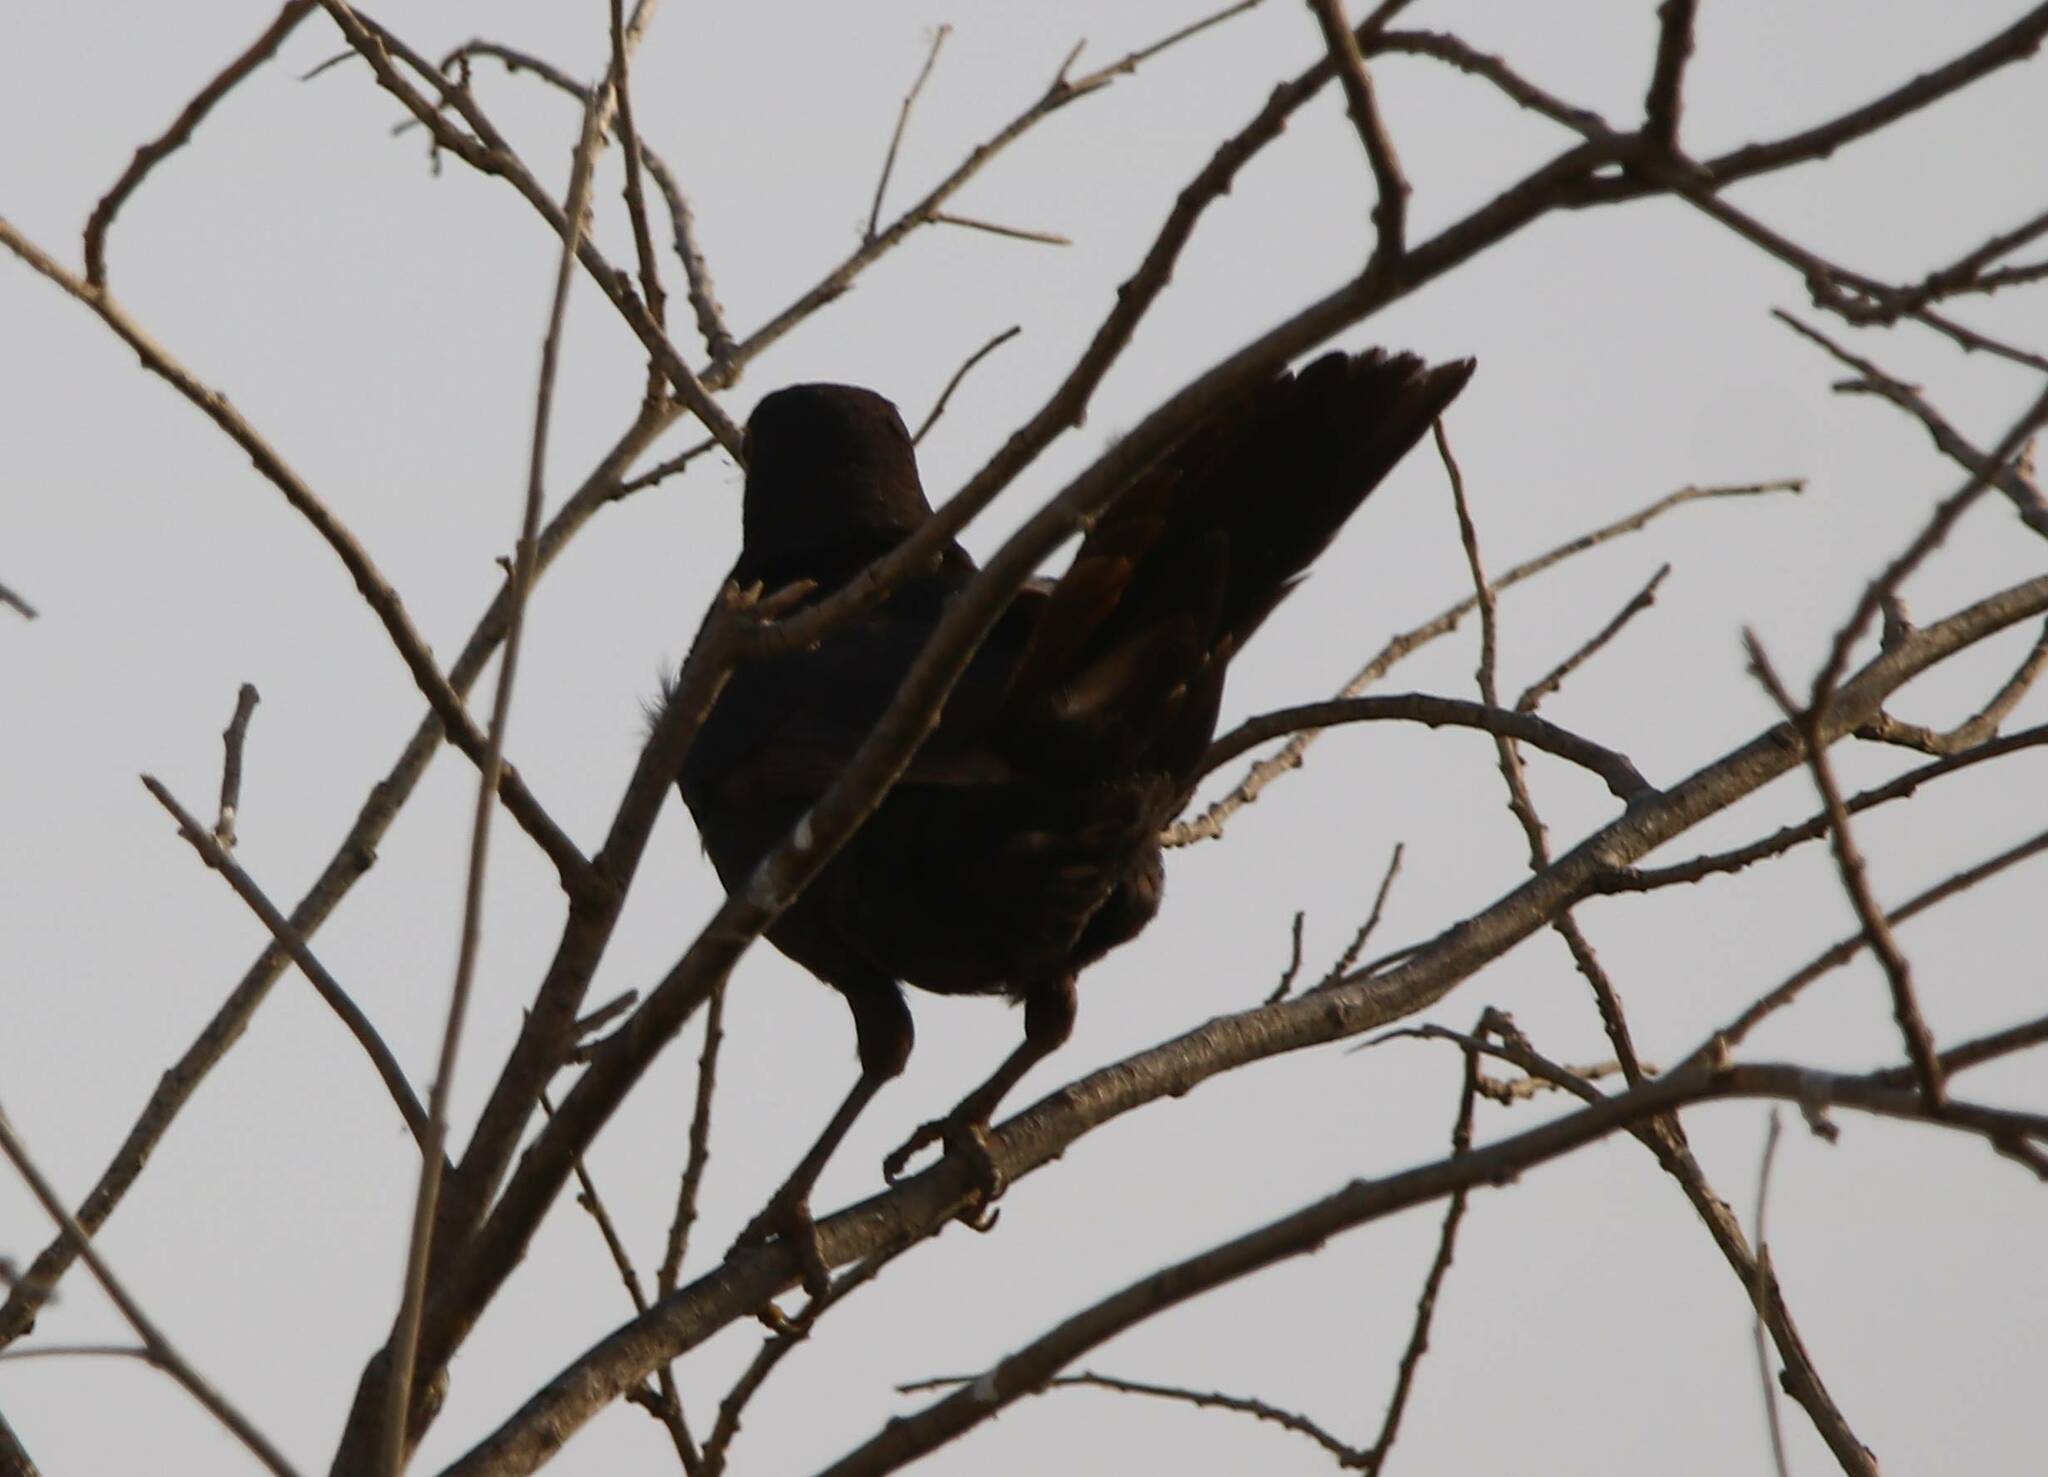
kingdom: Animalia
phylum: Chordata
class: Aves
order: Passeriformes
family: Turdidae
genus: Turdus
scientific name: Turdus merula
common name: Common blackbird
